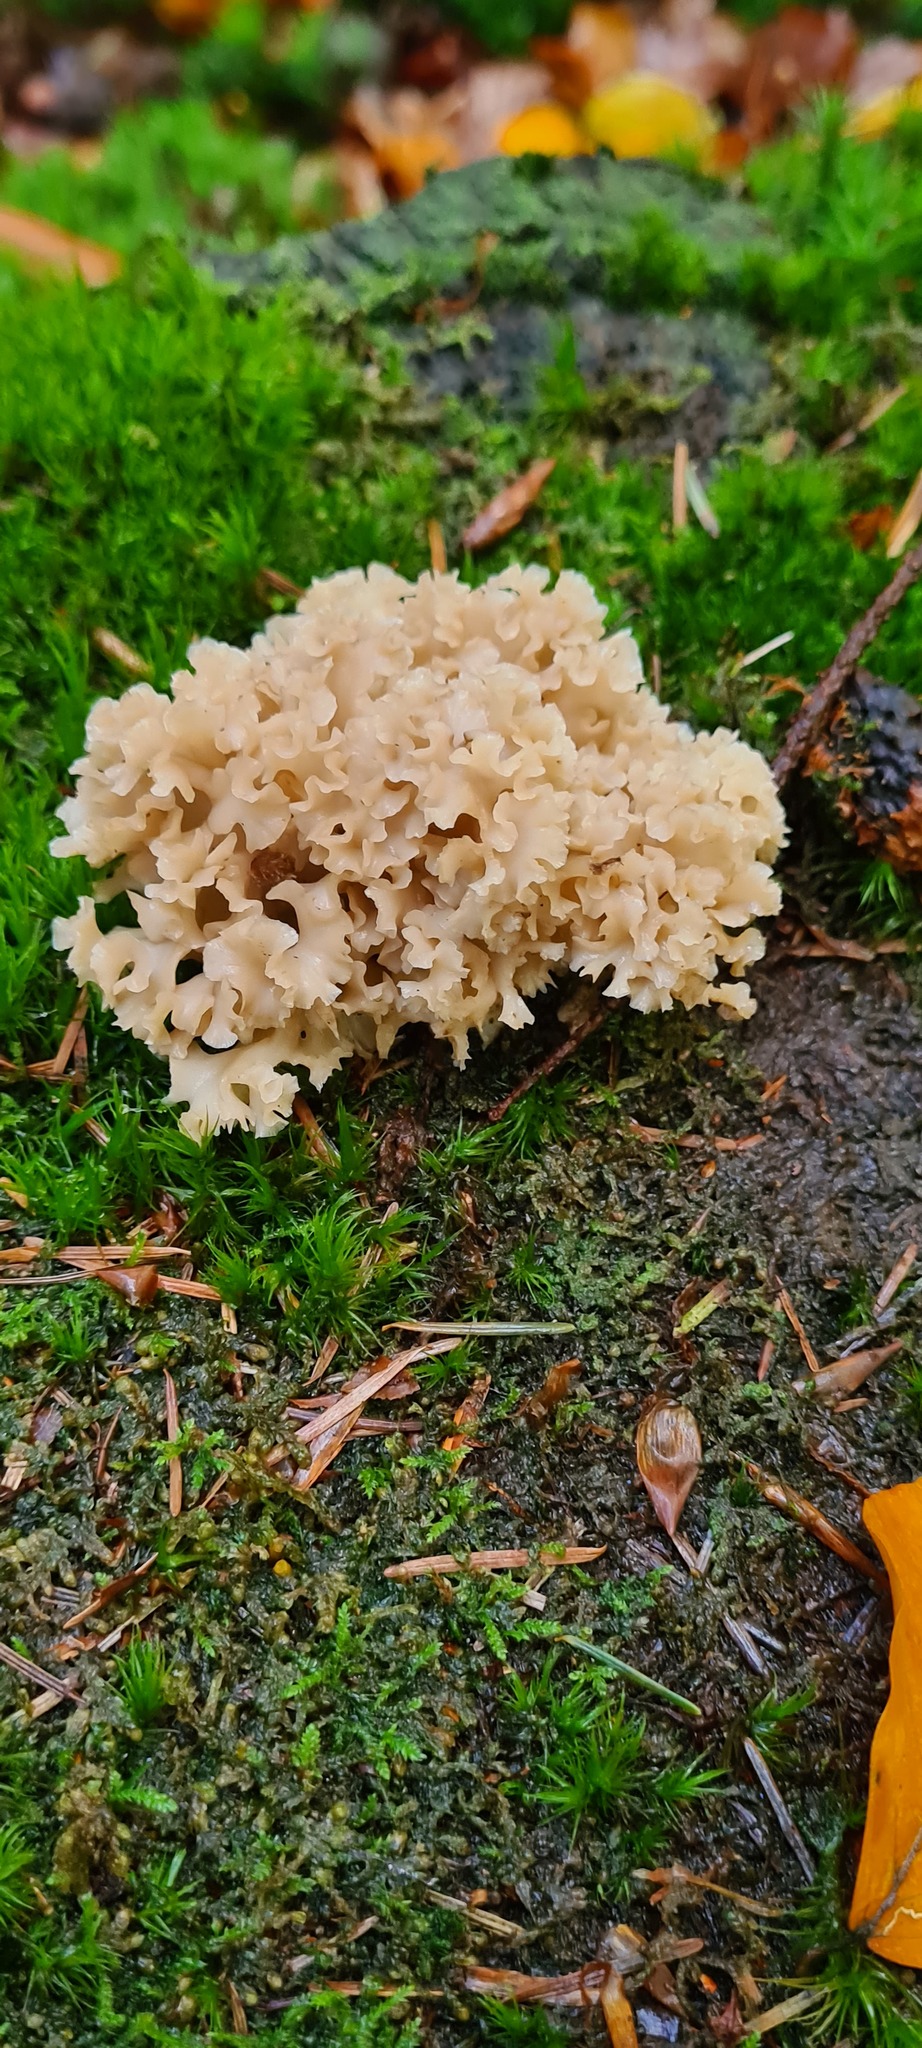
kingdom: Fungi
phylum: Basidiomycota
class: Agaricomycetes
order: Polyporales
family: Sparassidaceae
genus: Sparassis
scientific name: Sparassis crispa
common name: Brain fungus
